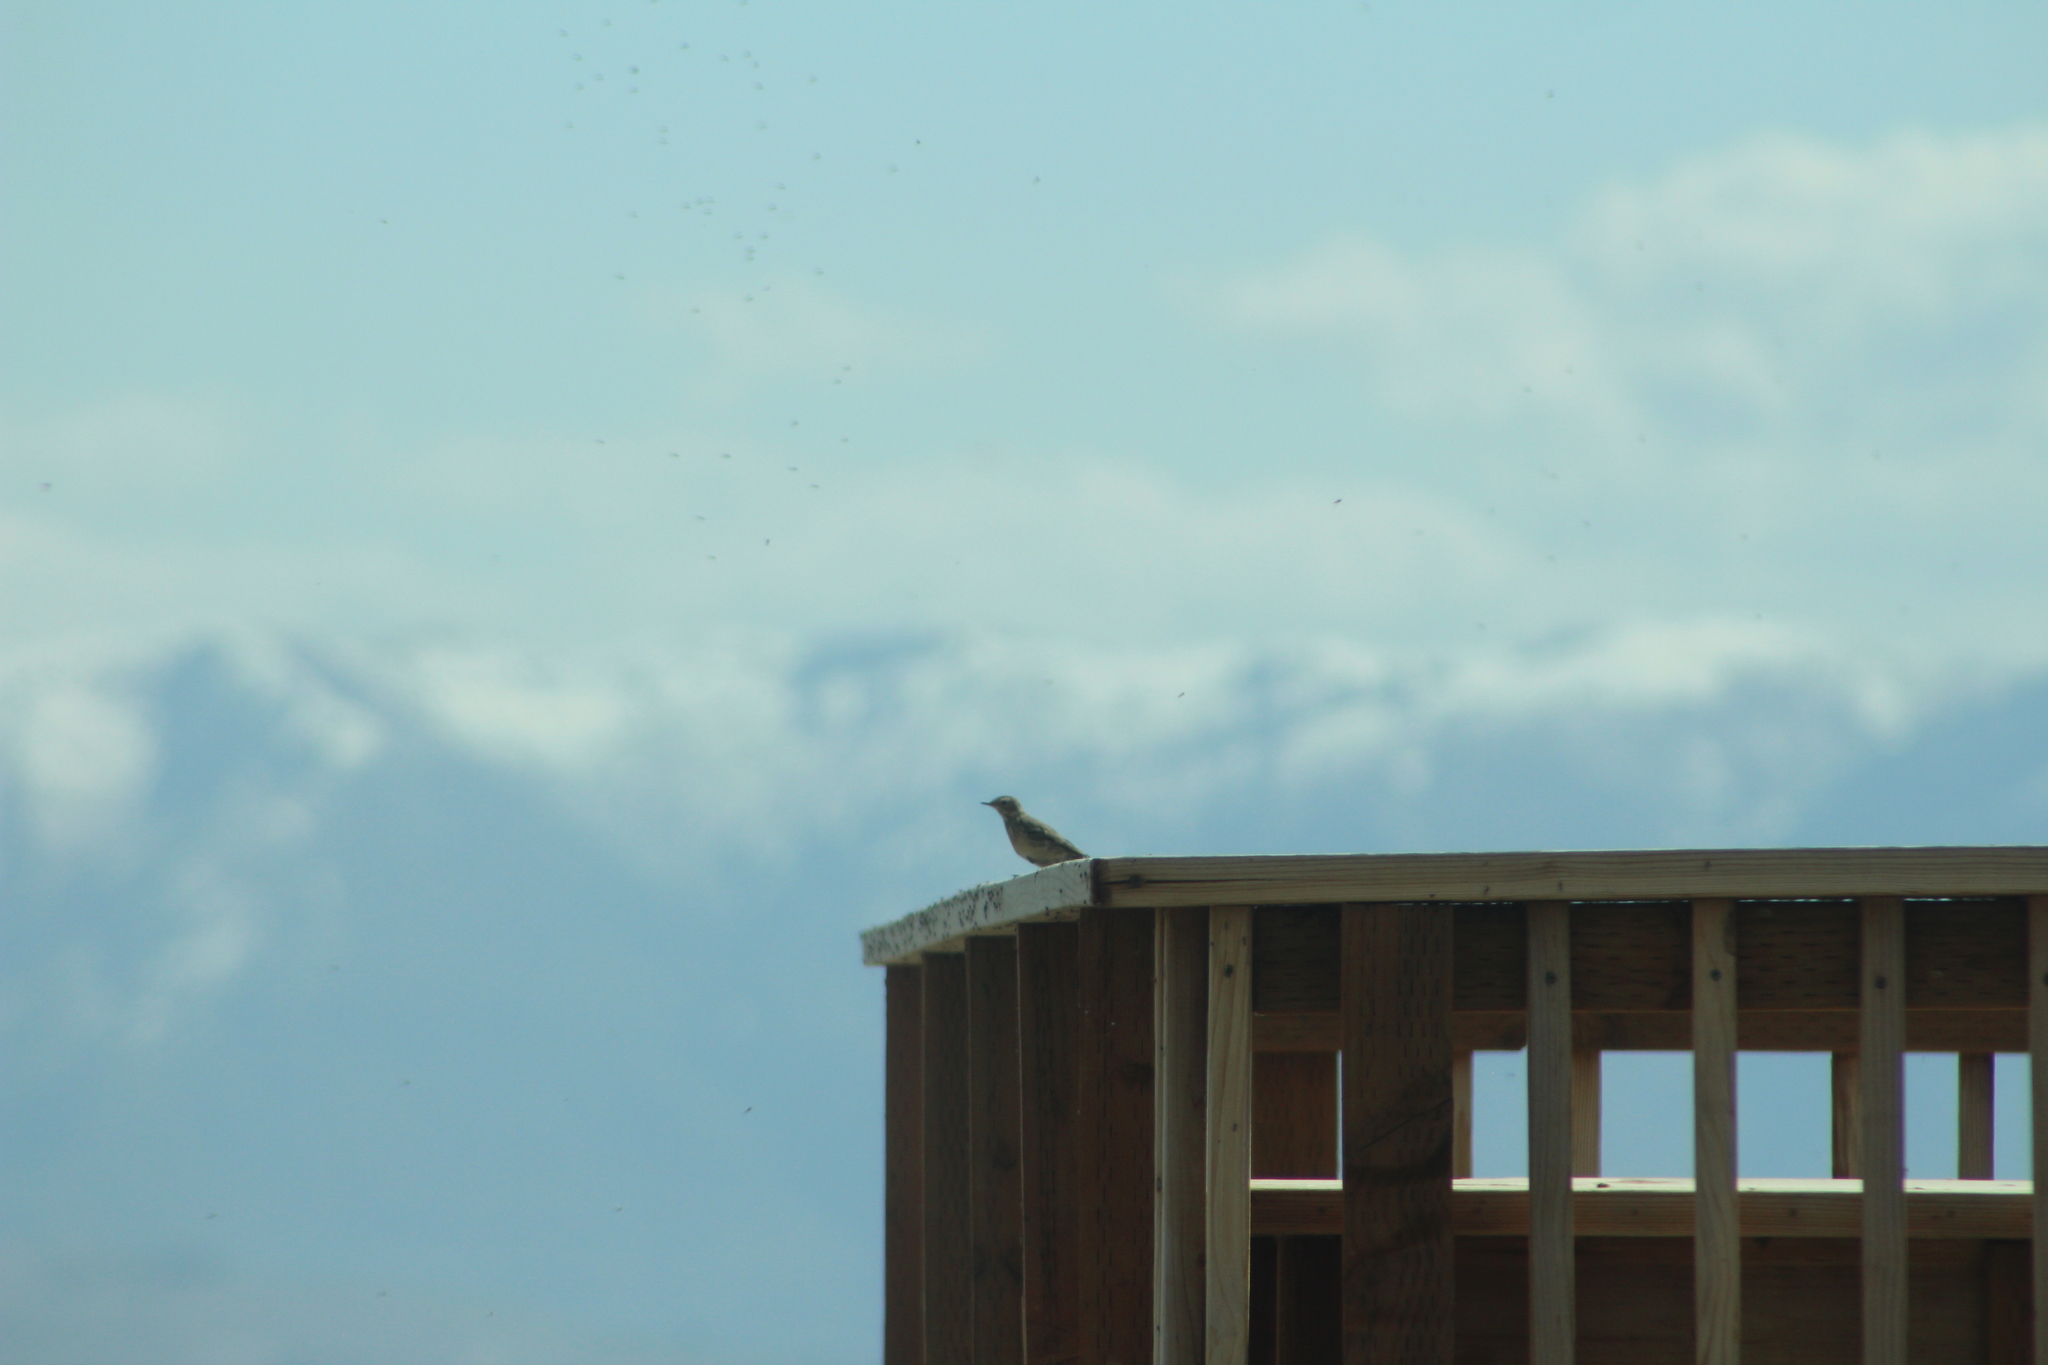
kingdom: Animalia
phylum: Chordata
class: Aves
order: Passeriformes
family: Motacillidae
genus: Anthus
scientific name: Anthus rubescens
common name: Buff-bellied pipit
